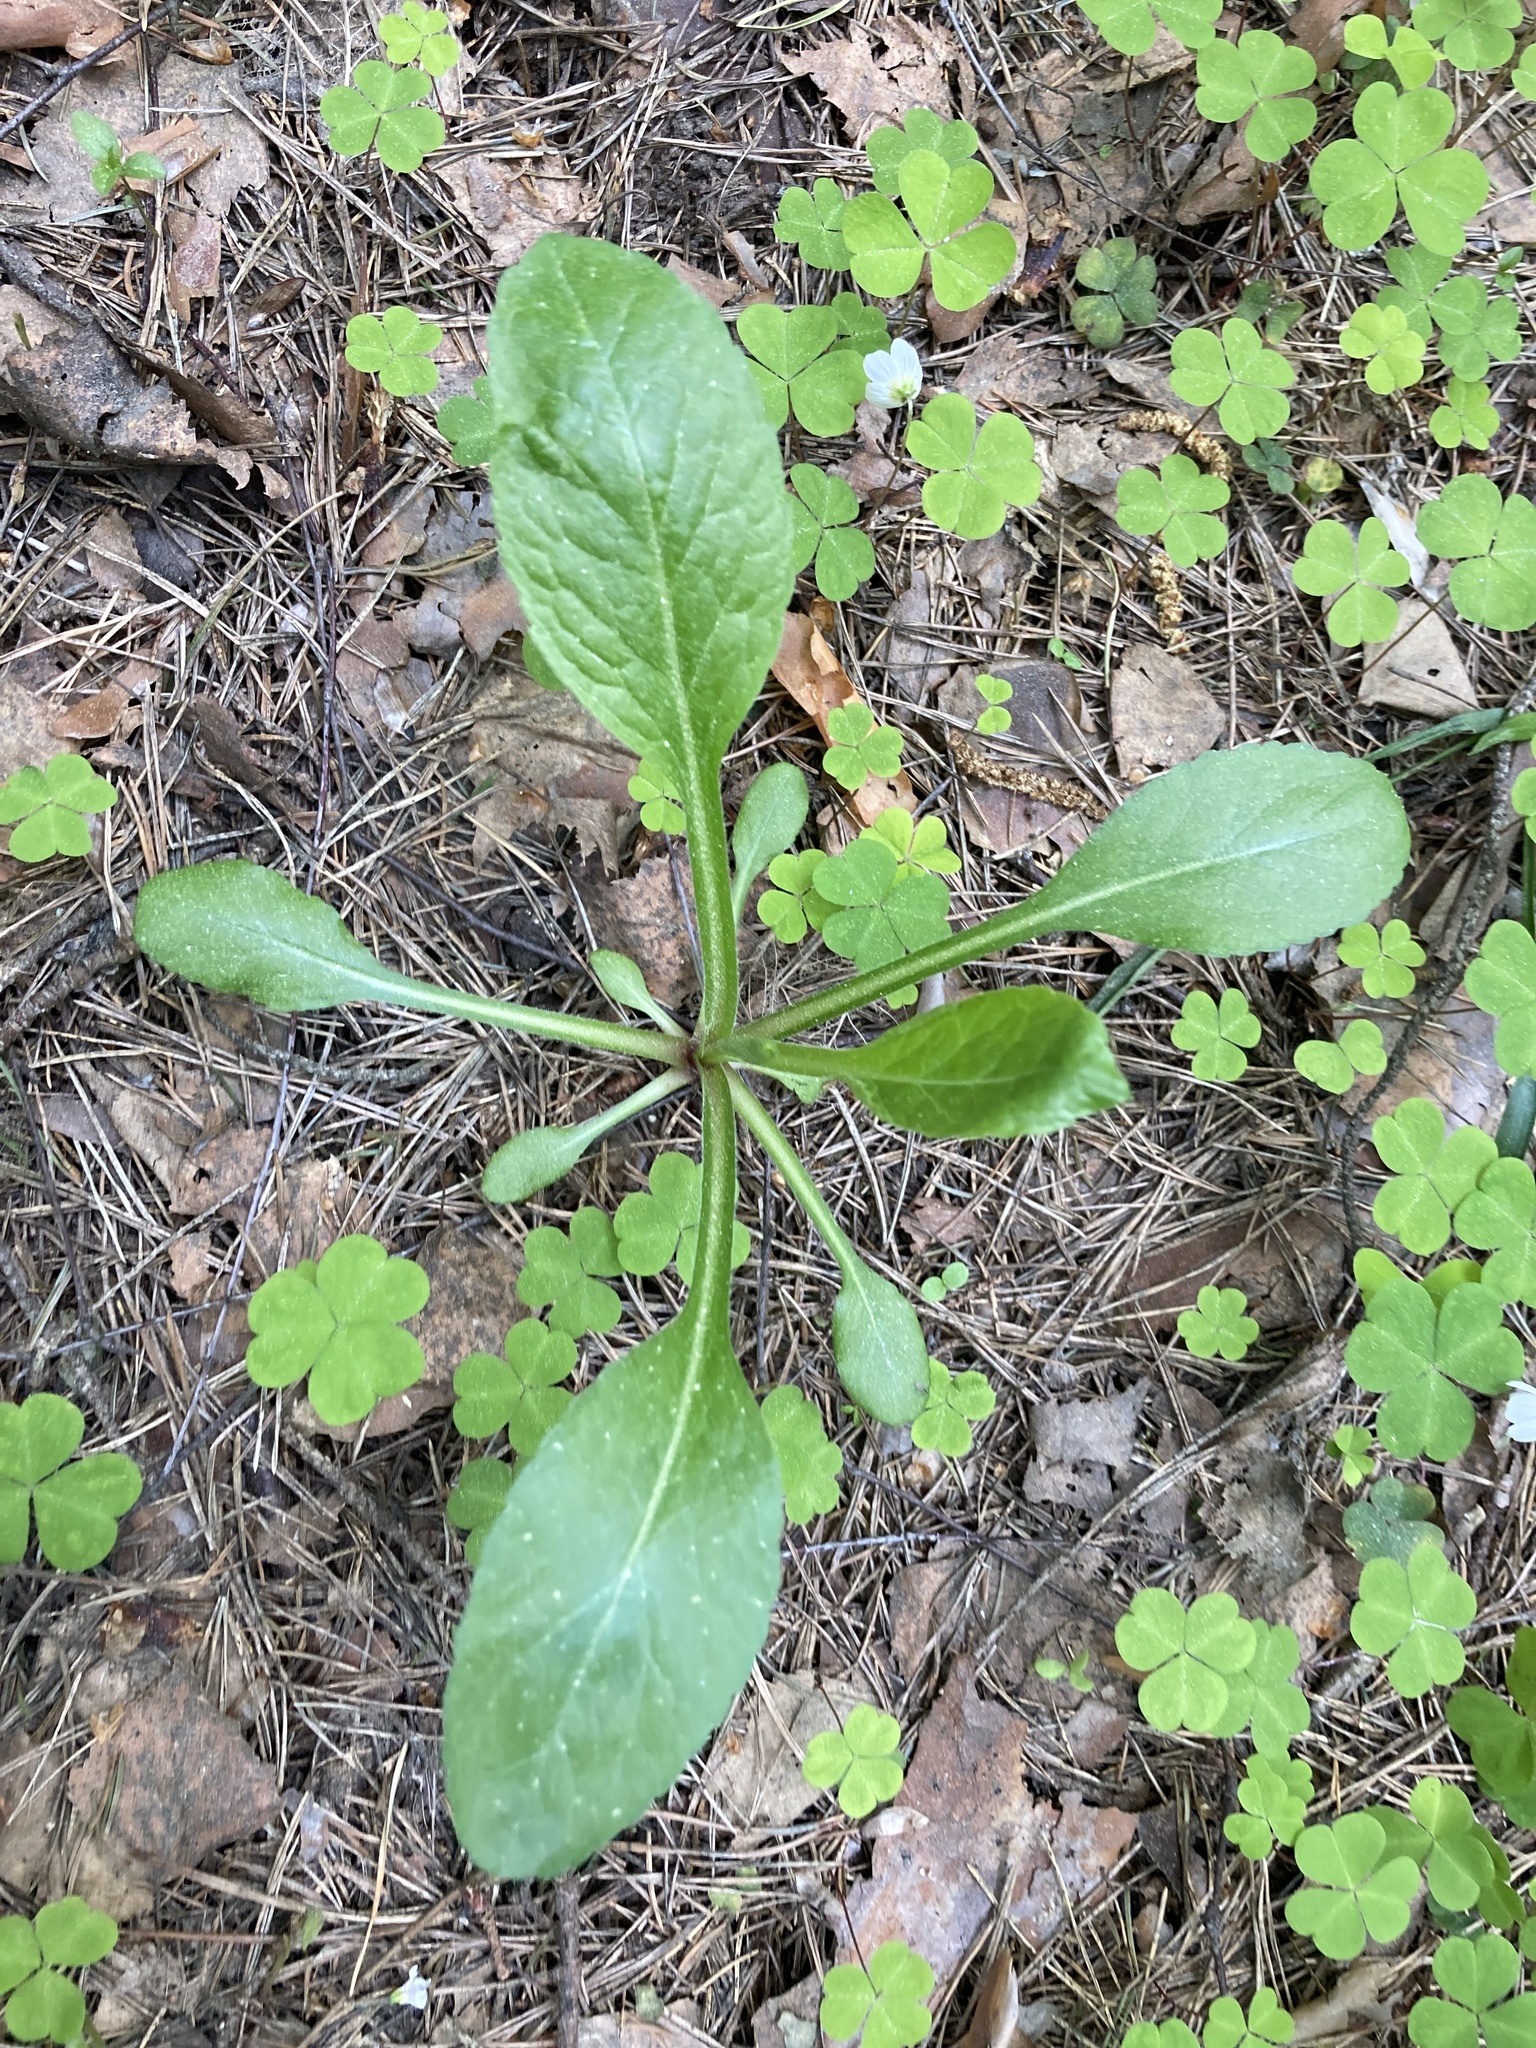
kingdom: Plantae
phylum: Tracheophyta
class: Magnoliopsida
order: Asterales
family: Asteraceae
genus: Solidago
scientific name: Solidago virgaurea
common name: Goldenrod
